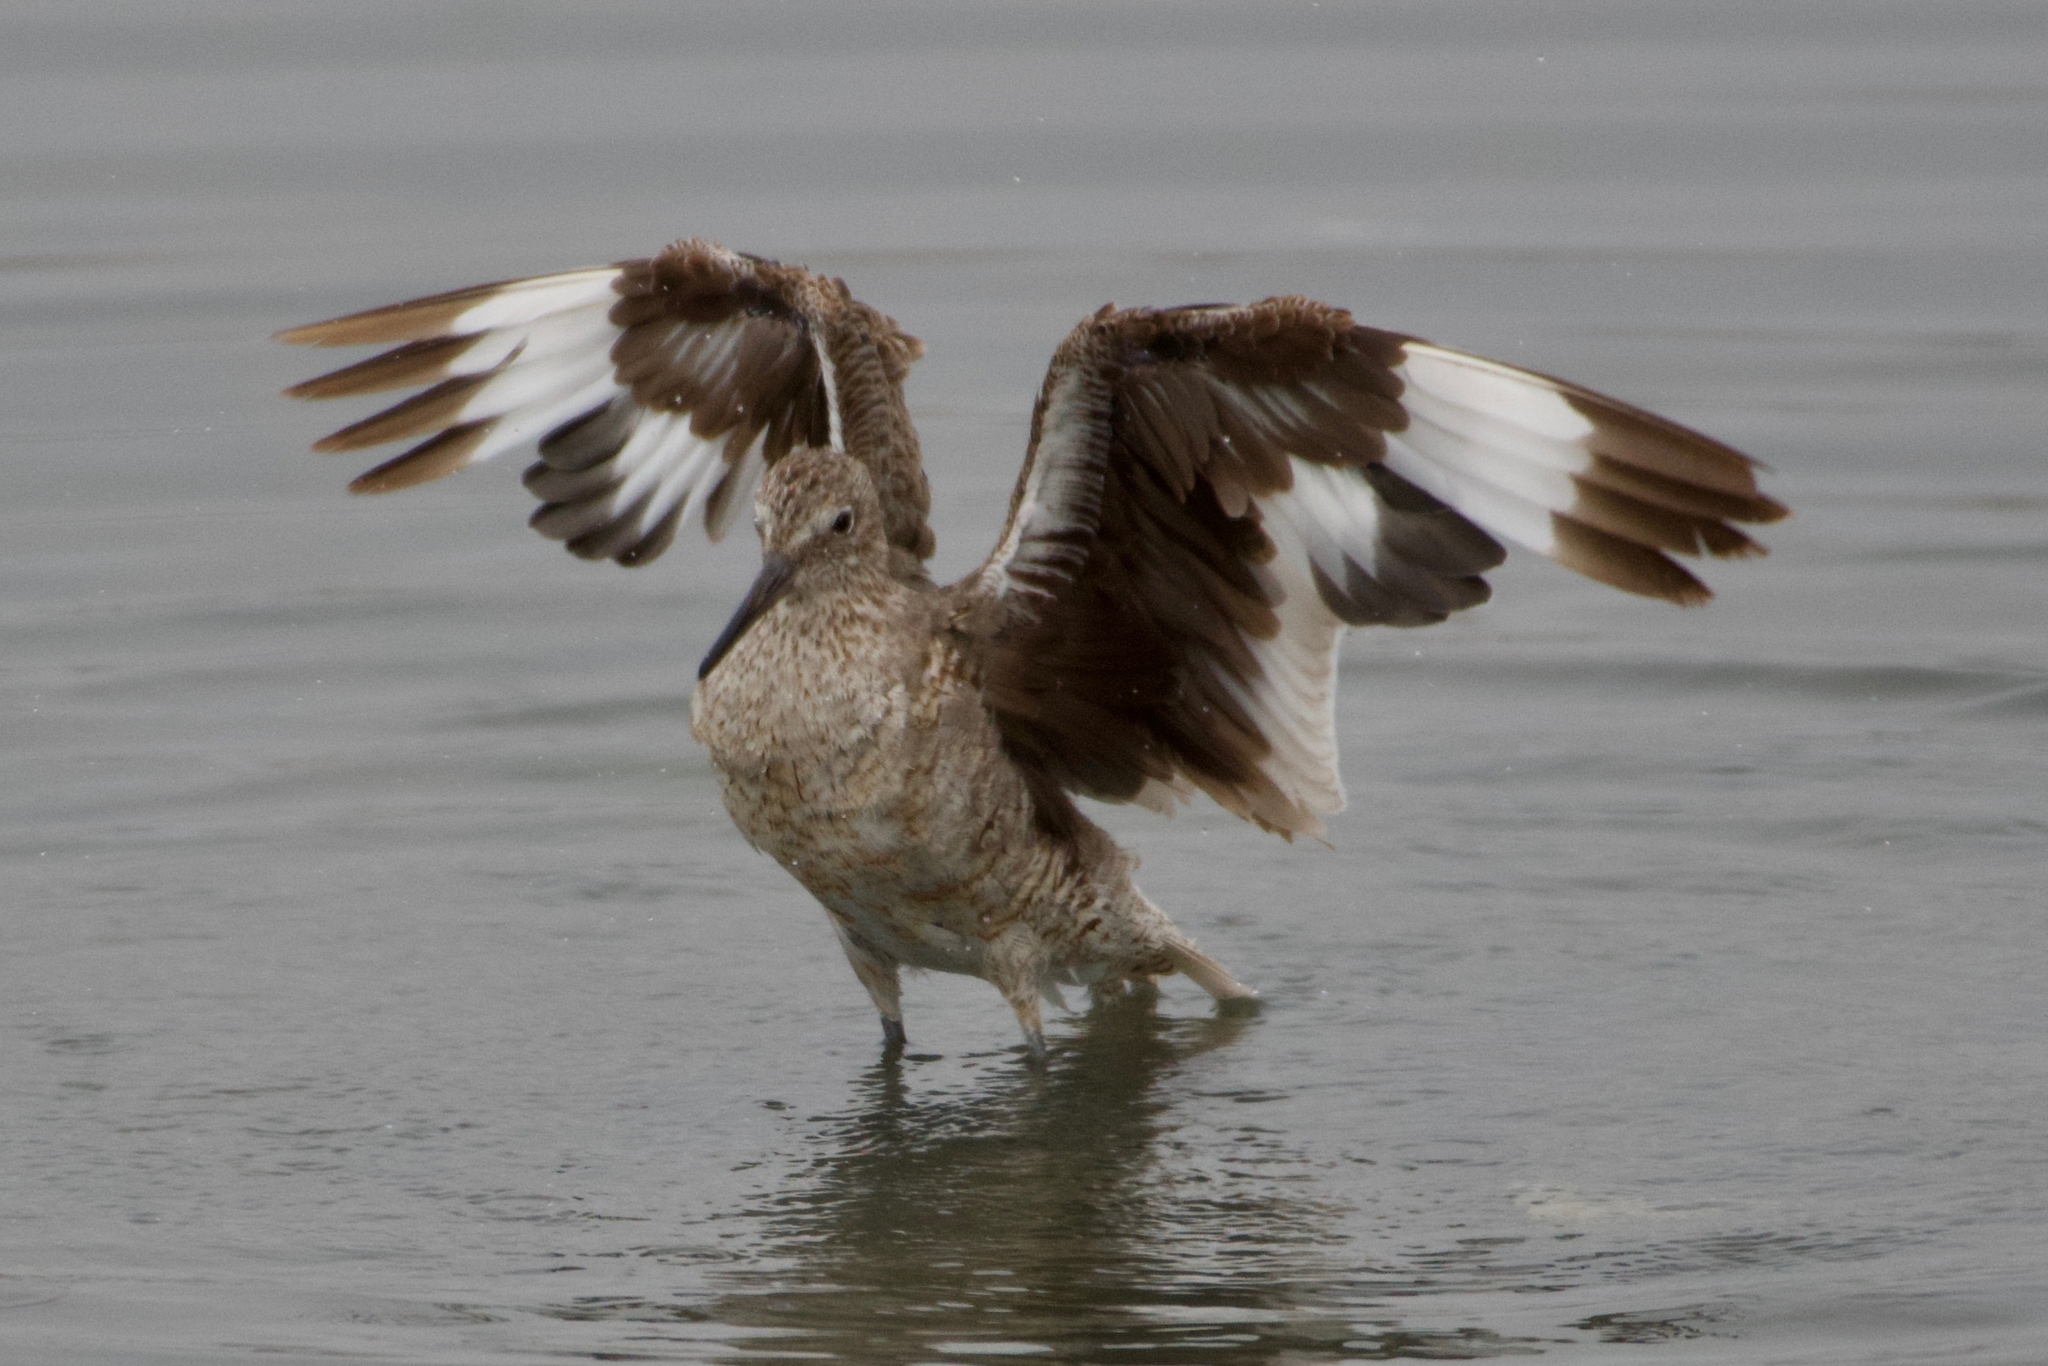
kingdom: Animalia
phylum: Chordata
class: Aves
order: Charadriiformes
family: Scolopacidae
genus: Tringa
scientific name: Tringa semipalmata
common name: Willet
